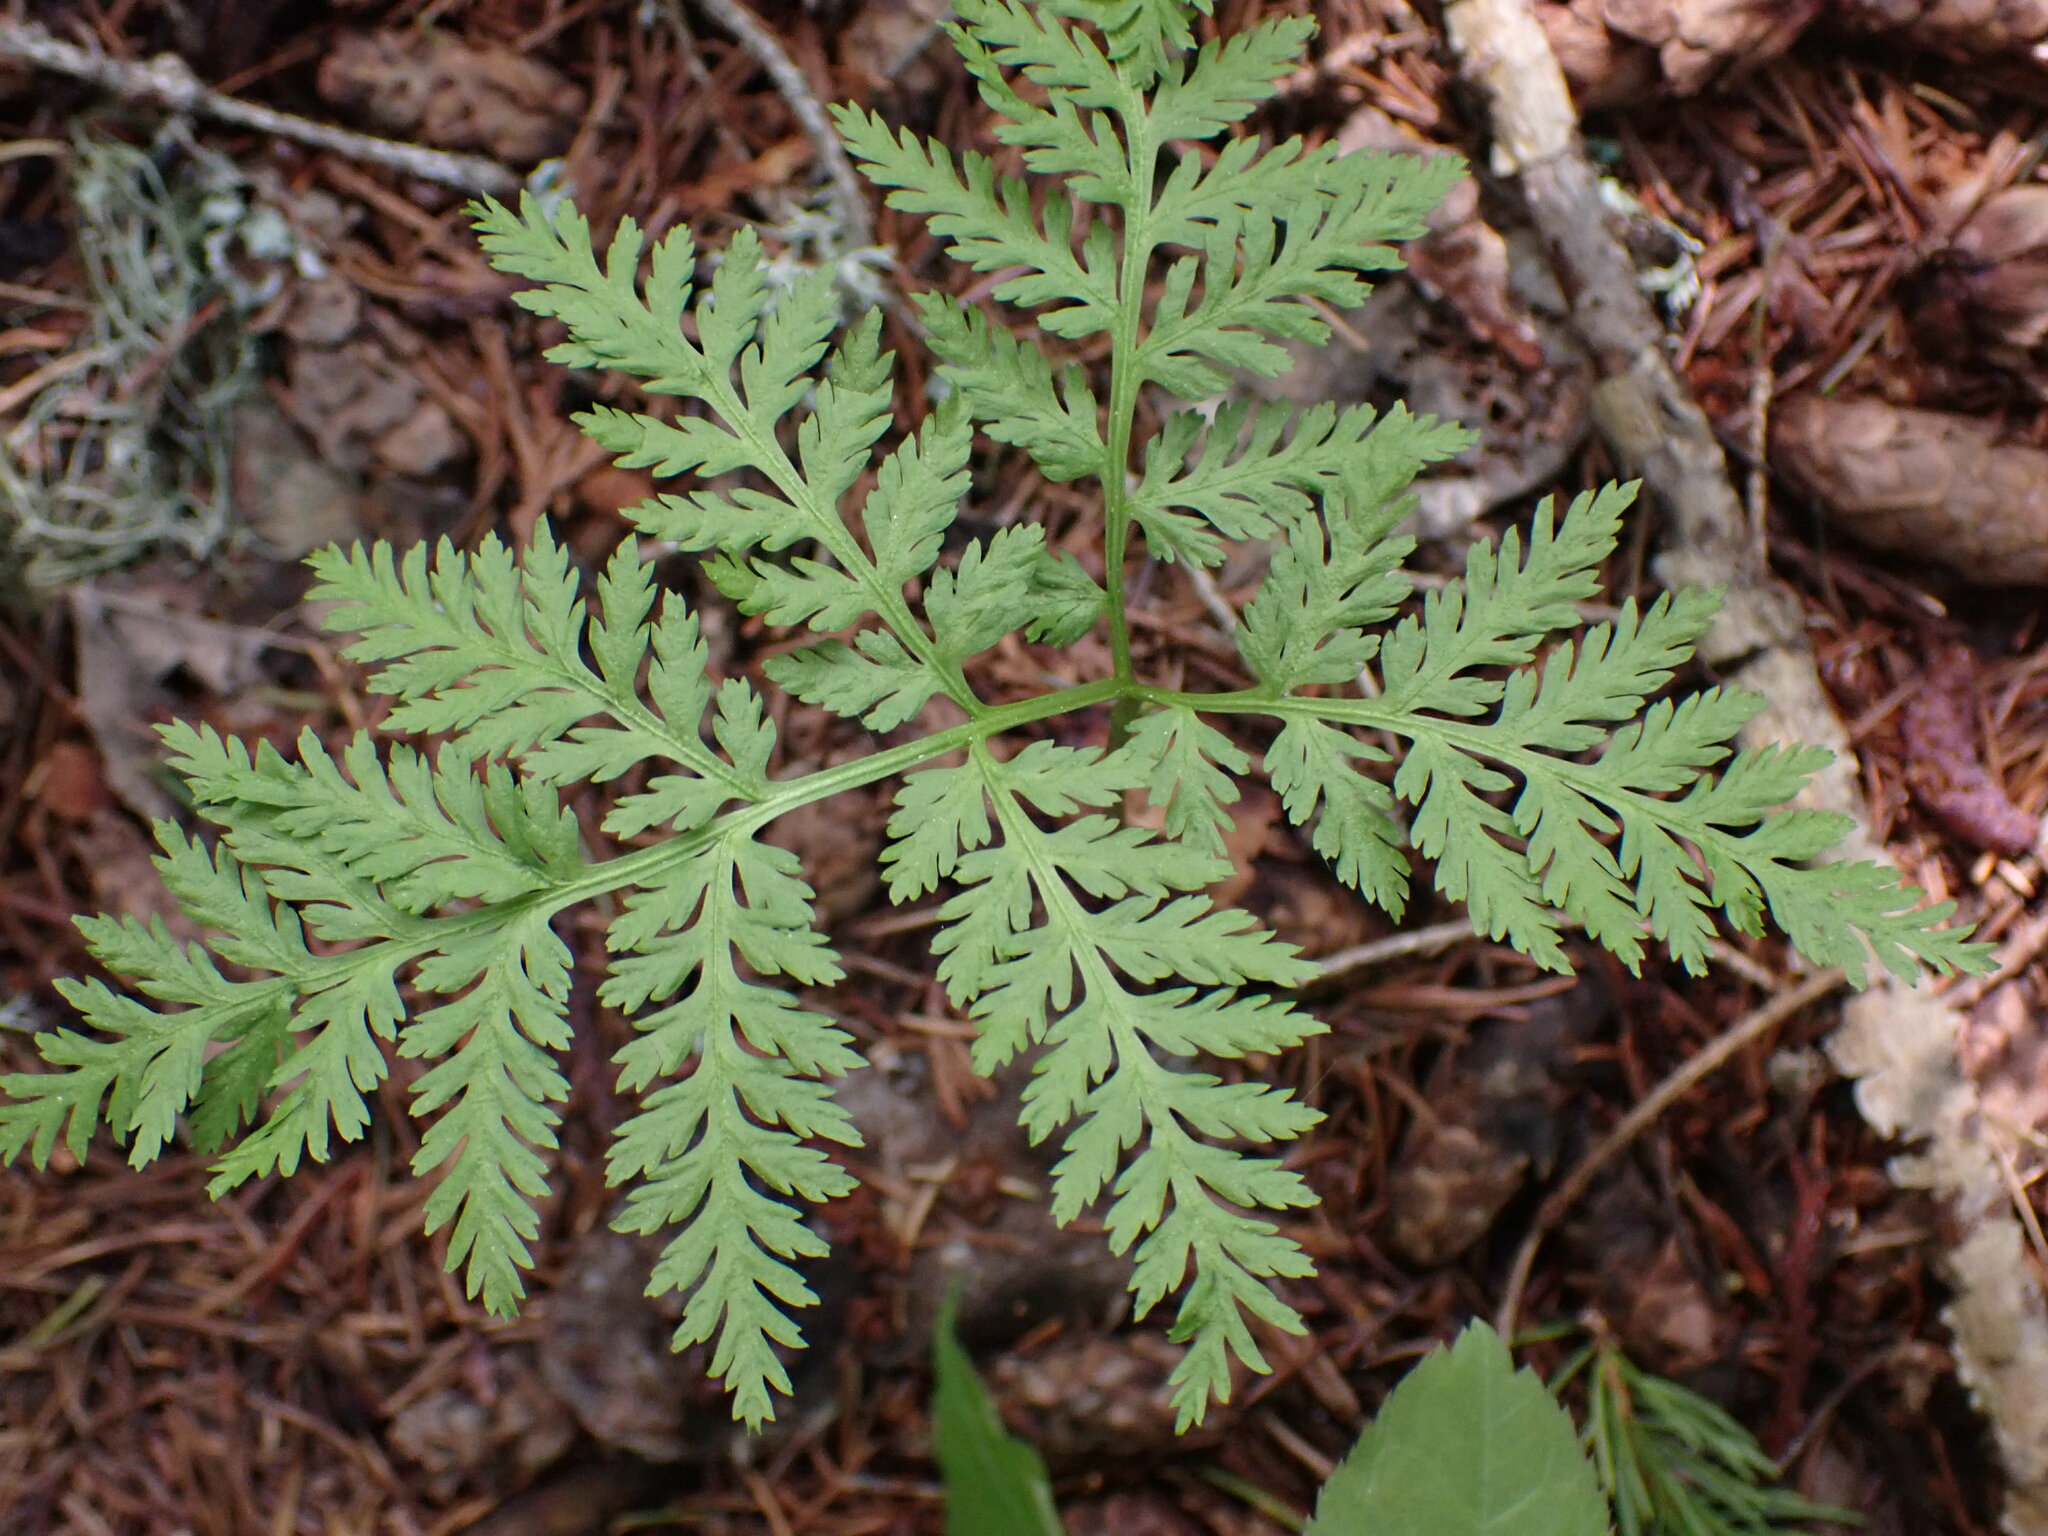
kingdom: Plantae
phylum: Tracheophyta
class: Polypodiopsida
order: Ophioglossales
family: Ophioglossaceae
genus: Botrypus
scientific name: Botrypus virginianus
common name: Common grapefern
